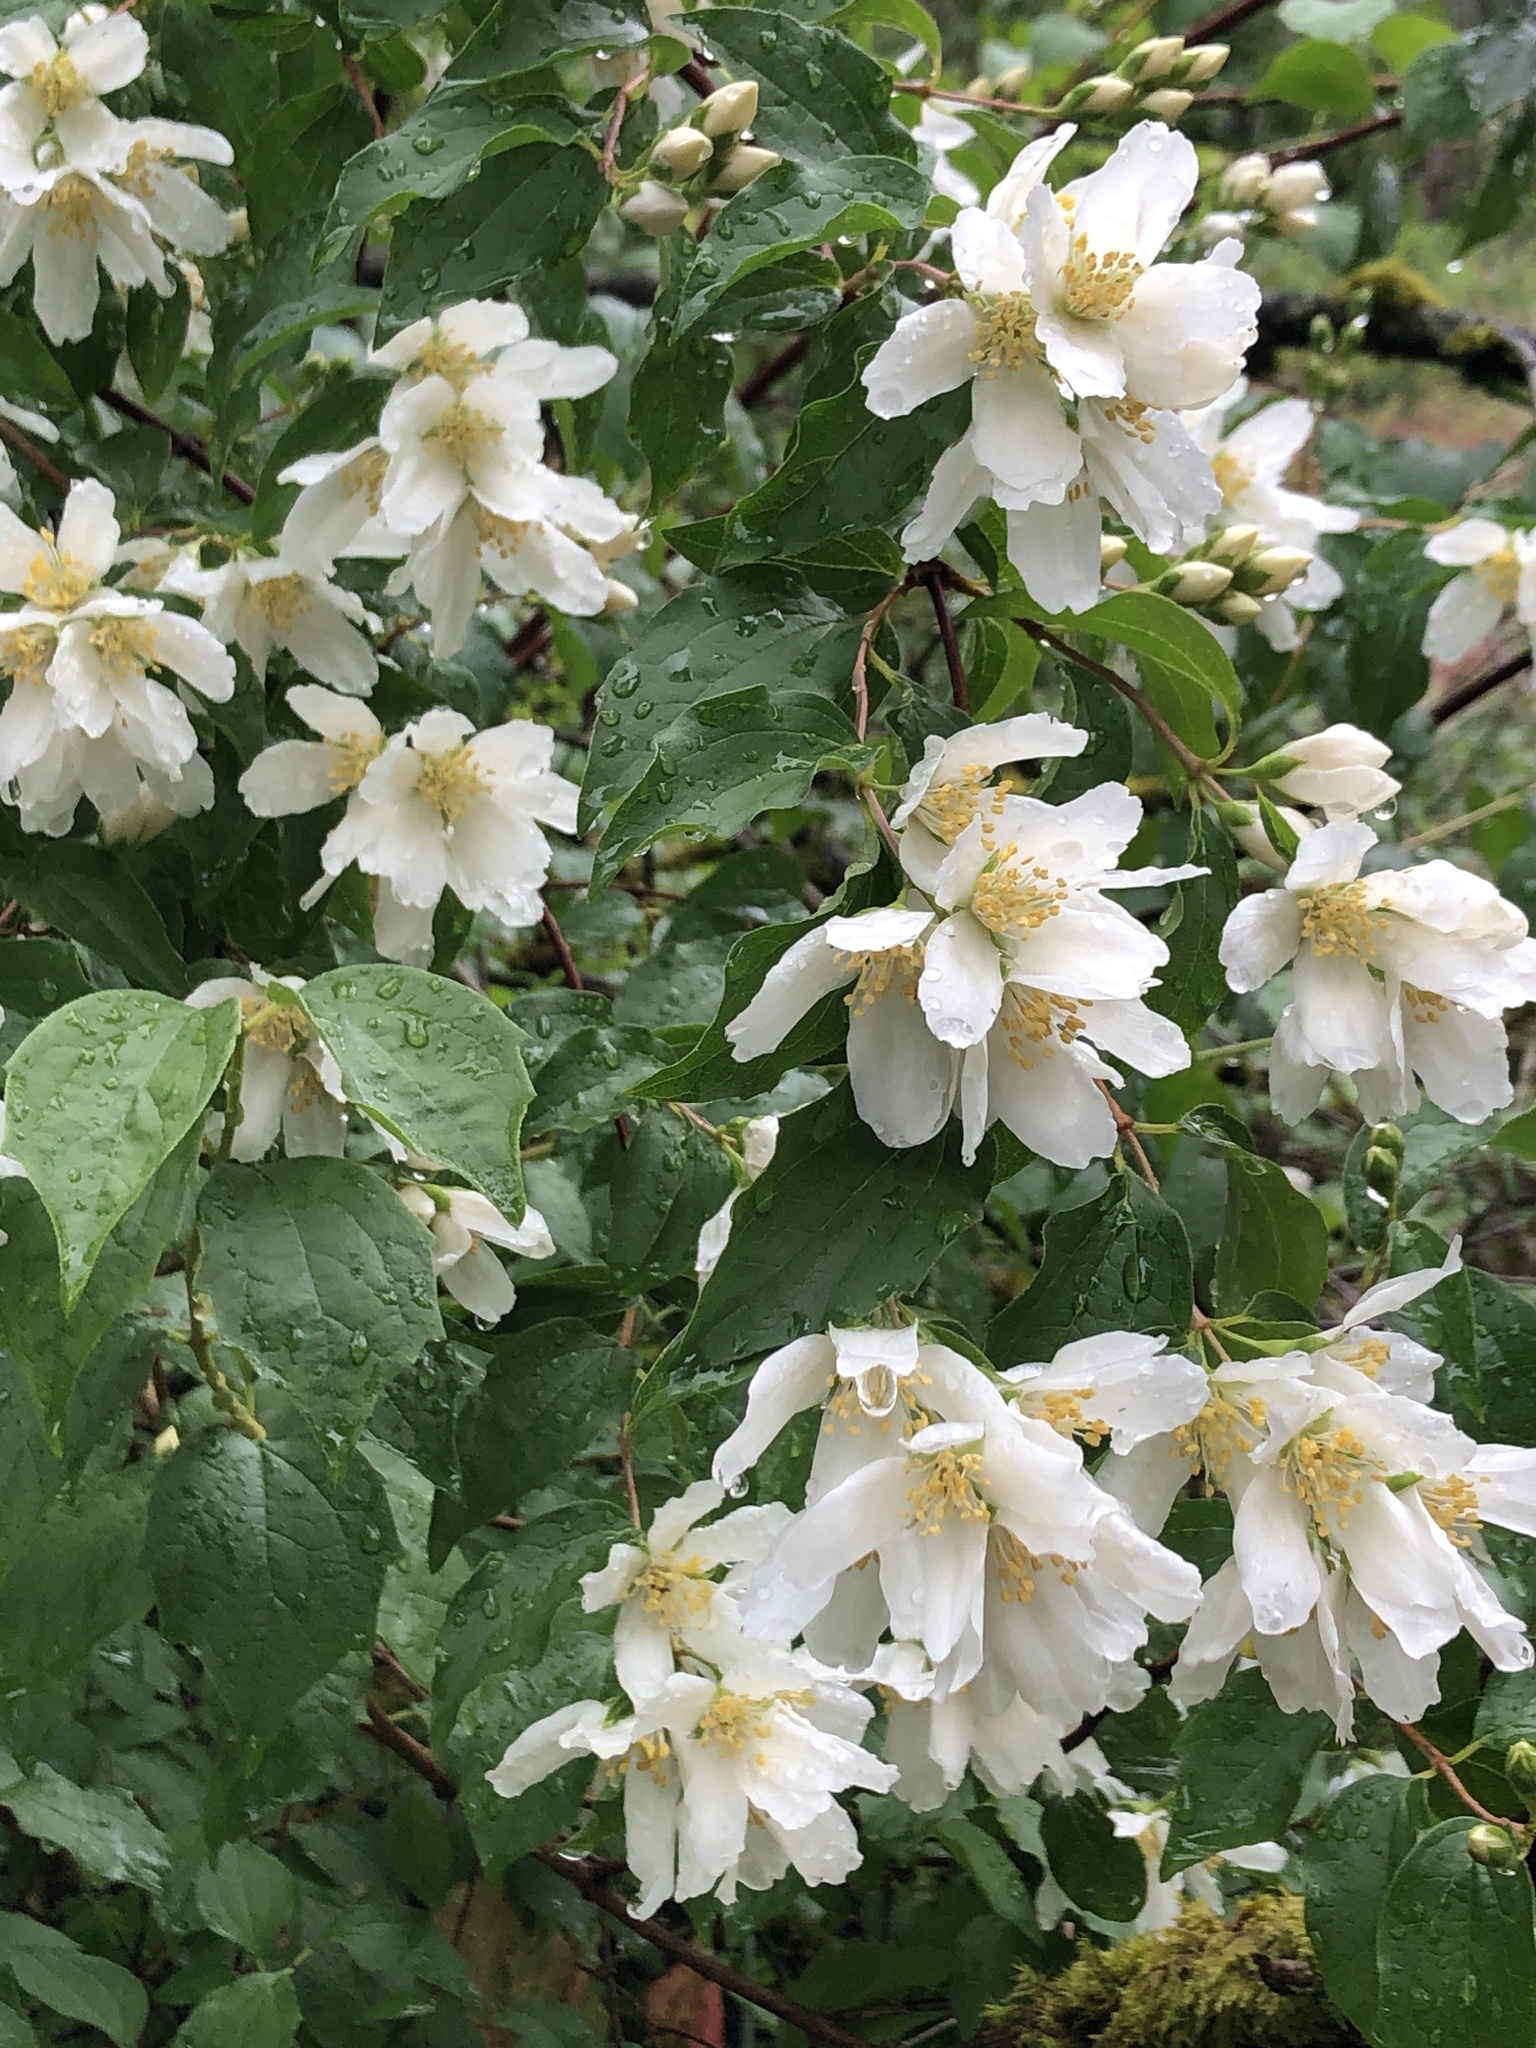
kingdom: Plantae
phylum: Tracheophyta
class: Magnoliopsida
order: Cornales
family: Hydrangeaceae
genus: Philadelphus
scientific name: Philadelphus lewisii
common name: Lewis's mock orange
